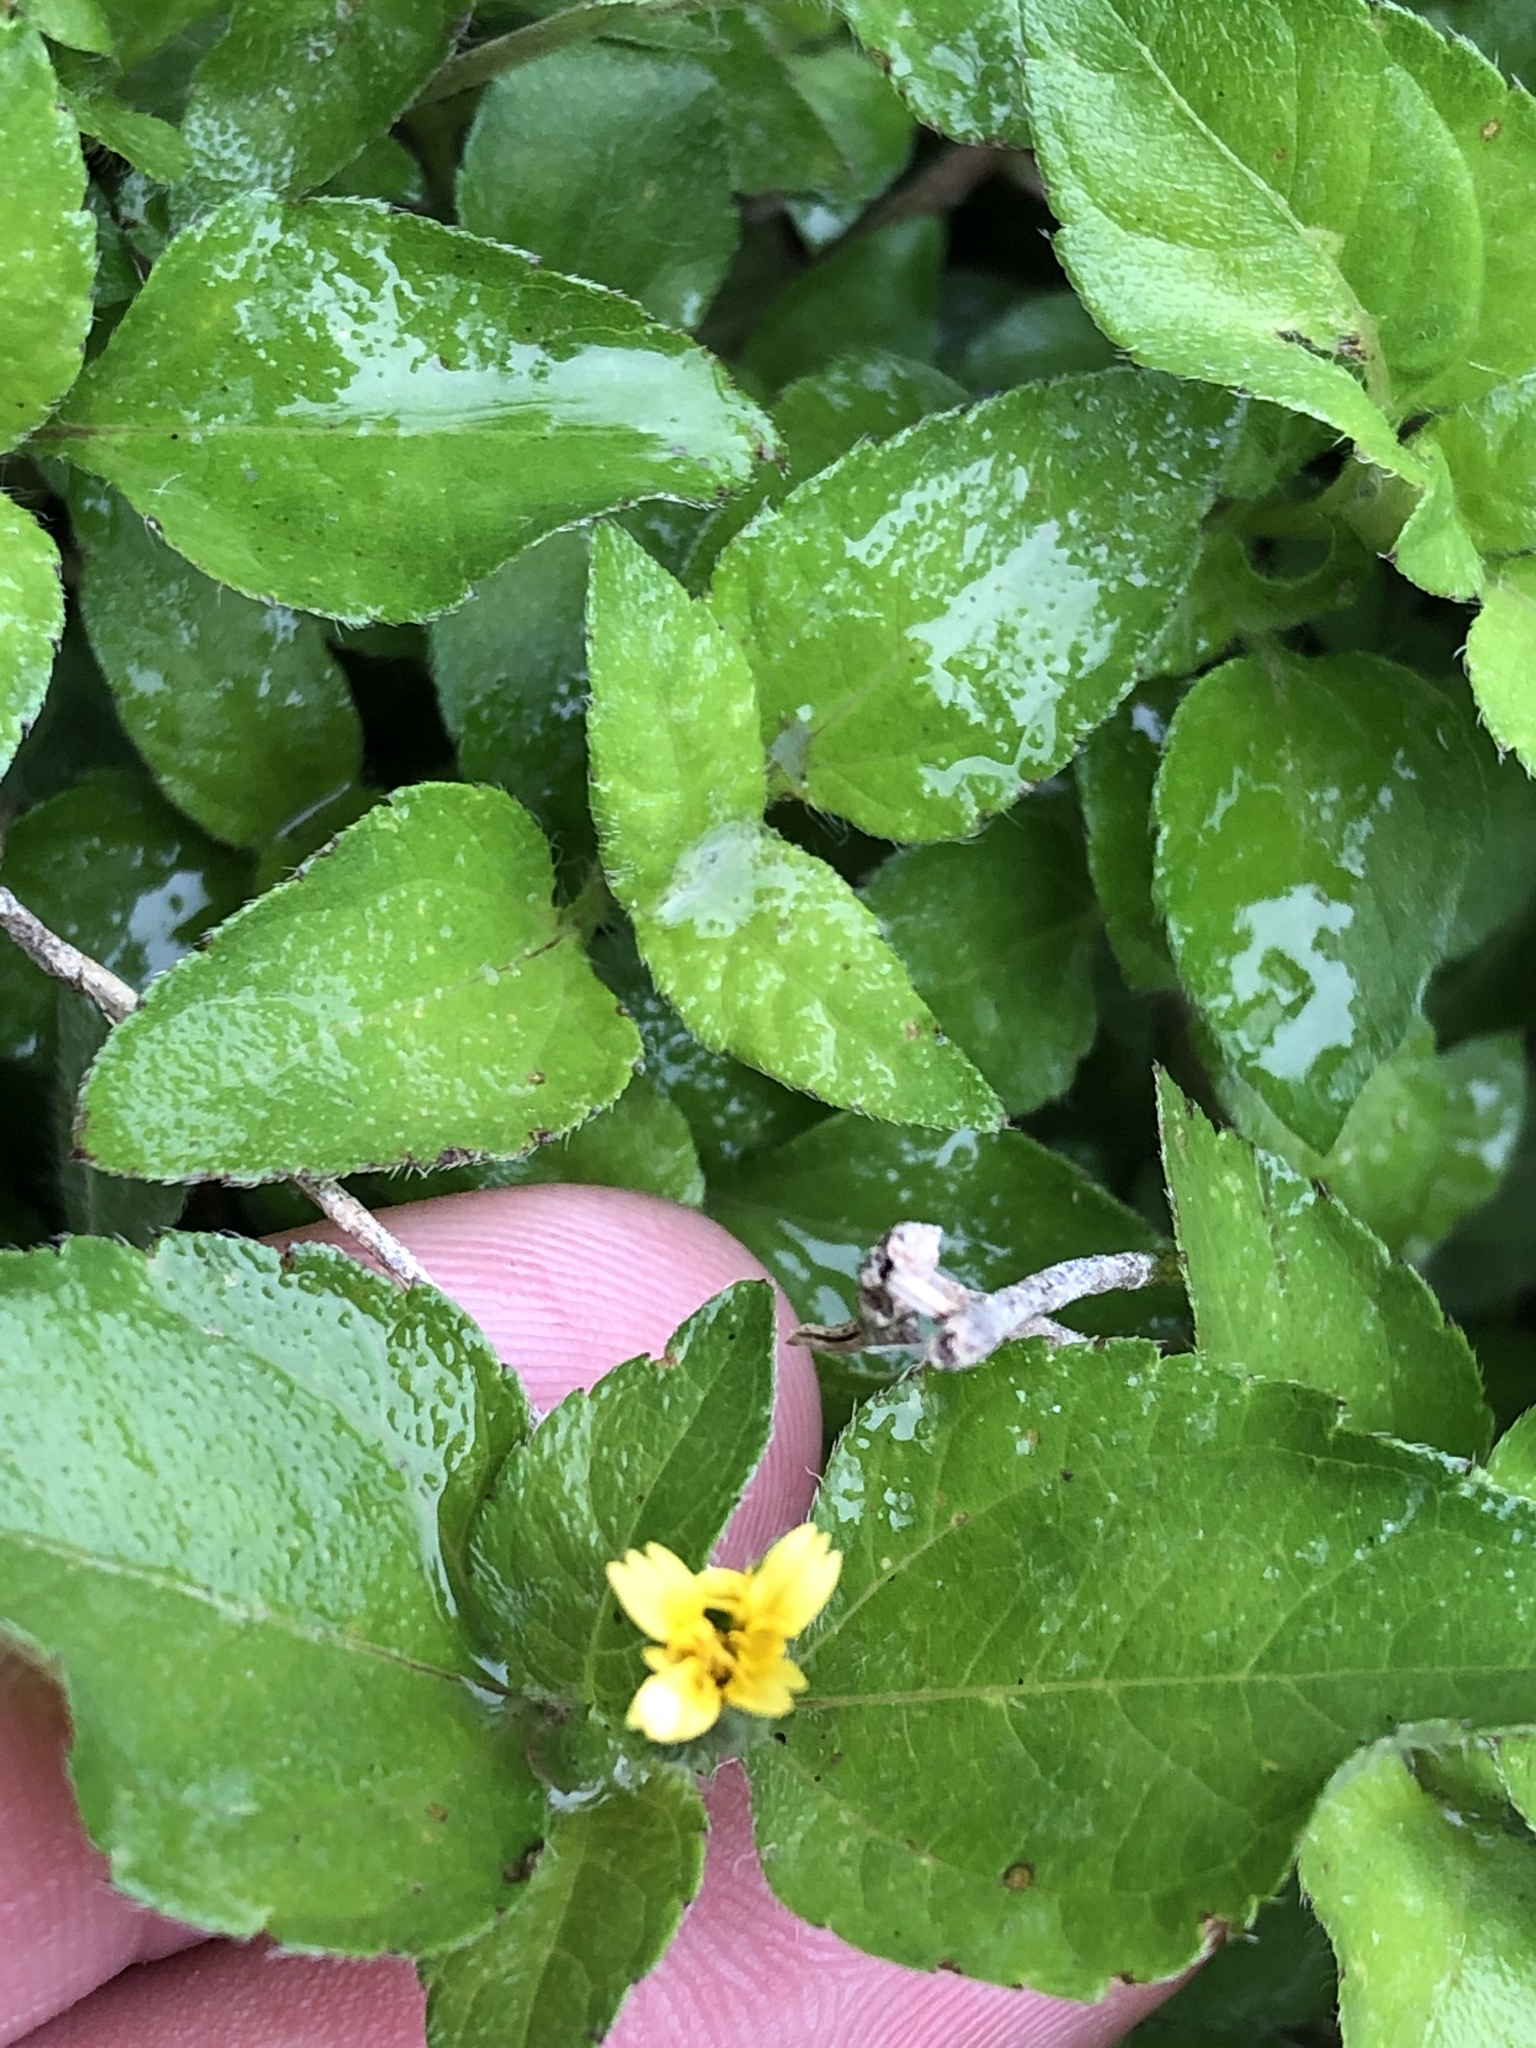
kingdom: Plantae
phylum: Tracheophyta
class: Magnoliopsida
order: Asterales
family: Asteraceae
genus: Calyptocarpus
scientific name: Calyptocarpus vialis
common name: Straggler daisy
